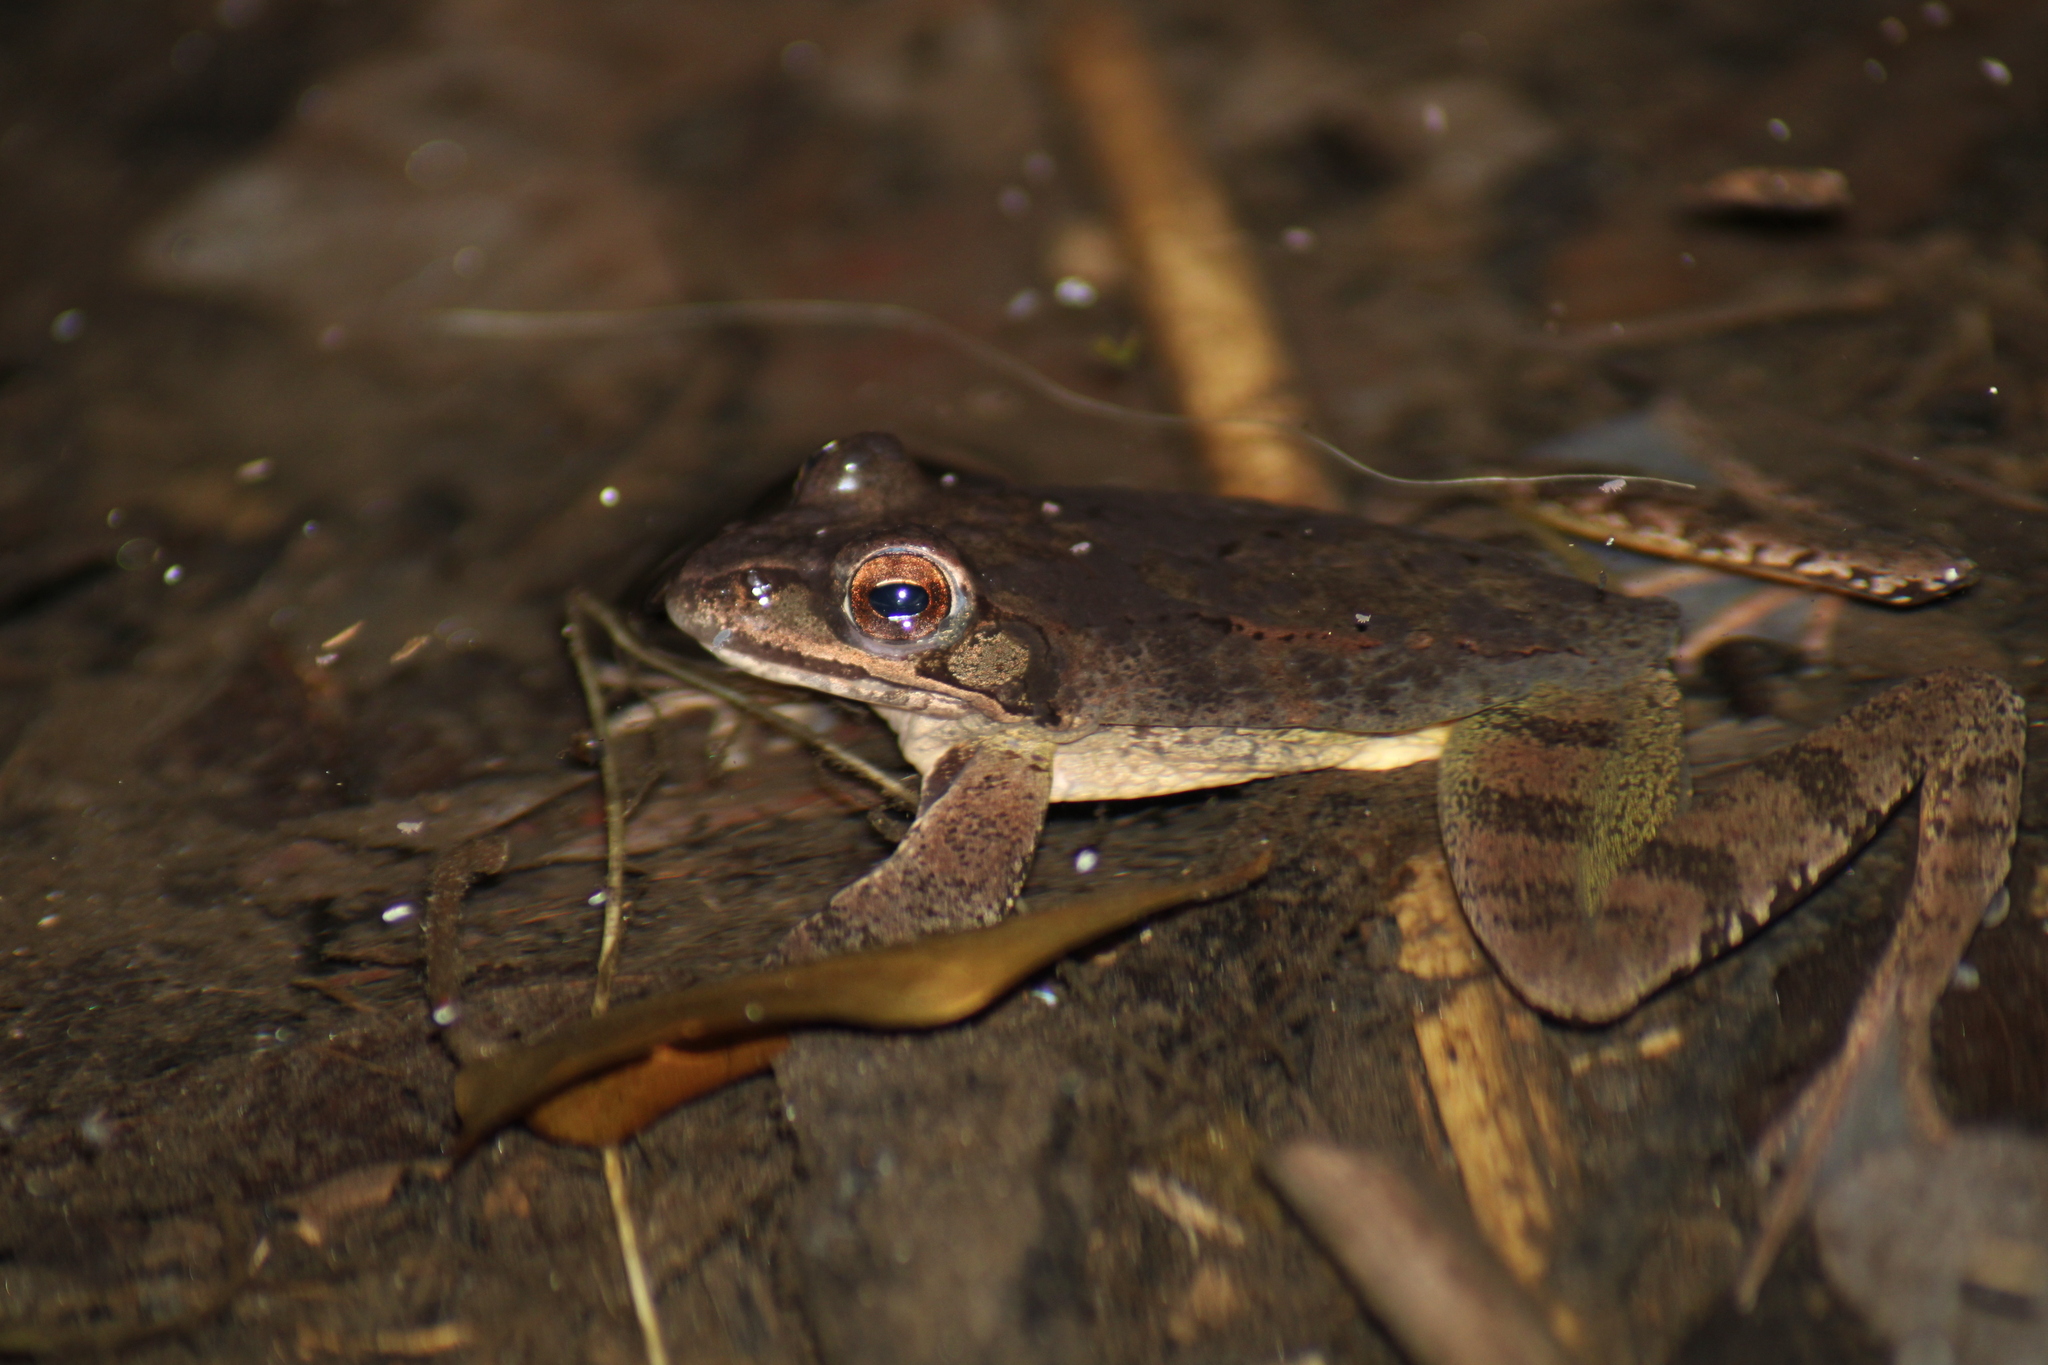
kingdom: Animalia
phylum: Chordata
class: Amphibia
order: Anura
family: Ranidae
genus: Rana
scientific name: Rana dalmatina
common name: Agile frog
